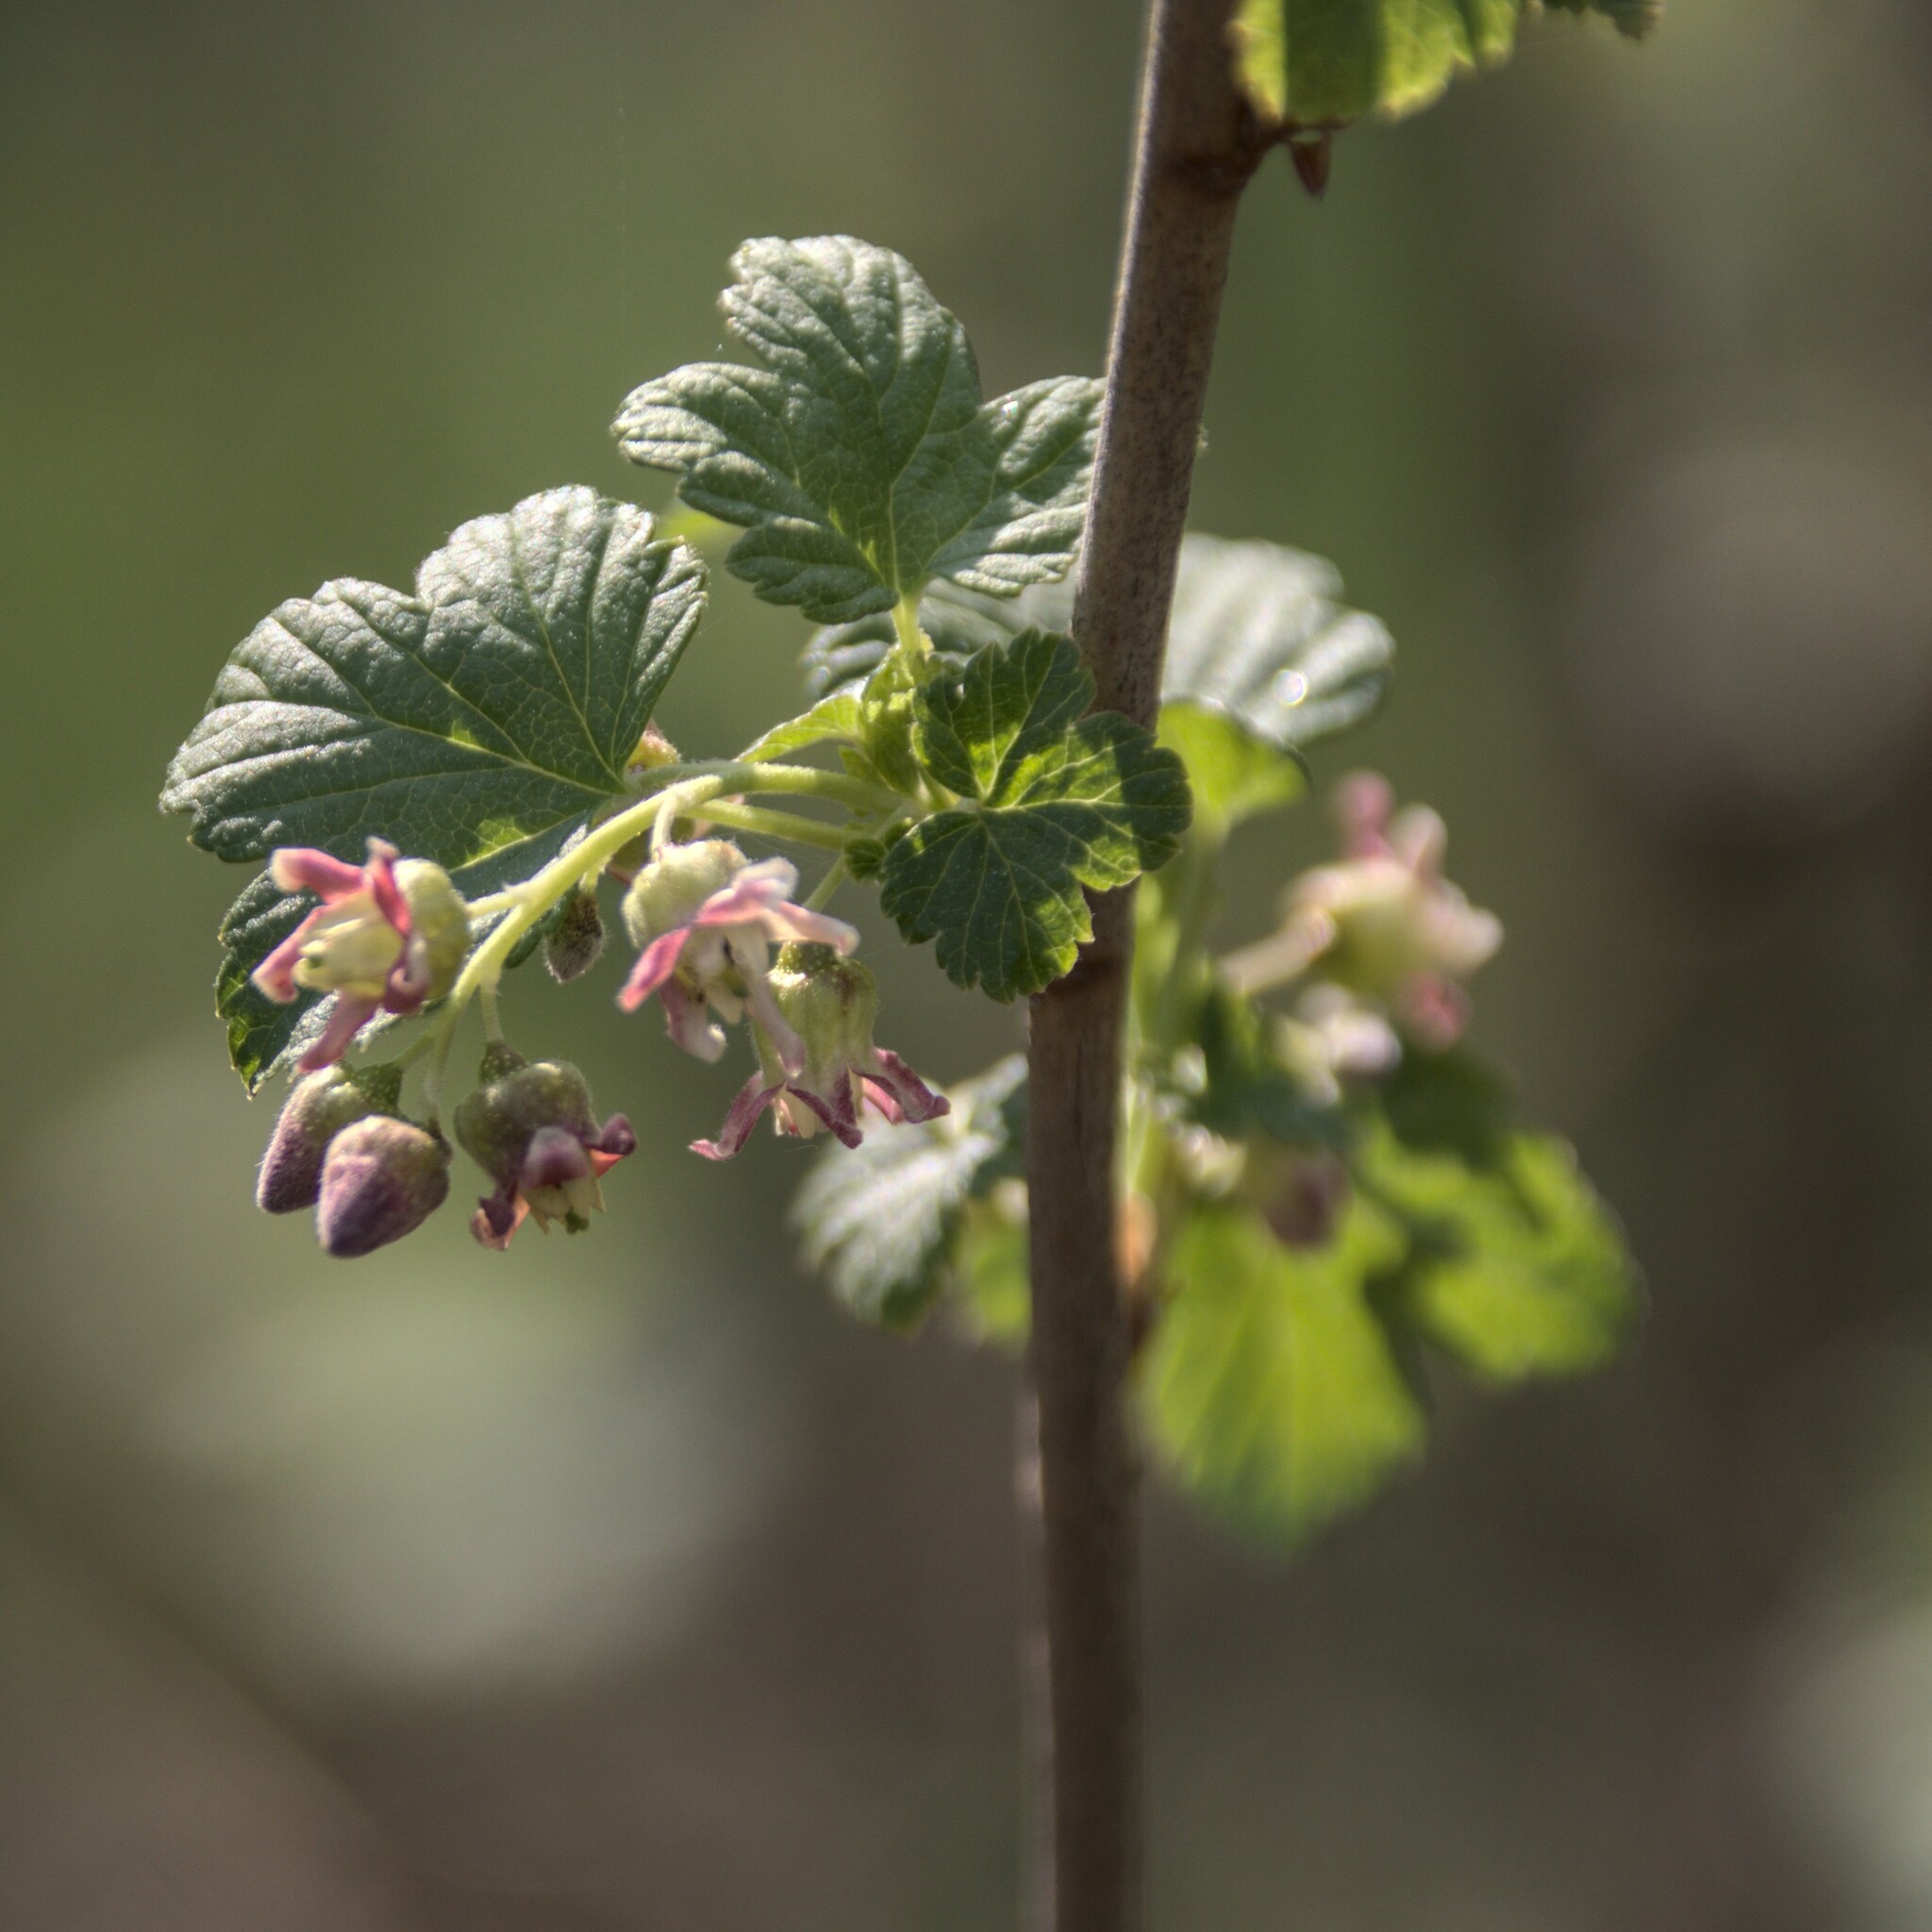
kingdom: Plantae
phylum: Tracheophyta
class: Magnoliopsida
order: Saxifragales
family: Grossulariaceae
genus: Ribes
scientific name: Ribes nigrum
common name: Black currant
